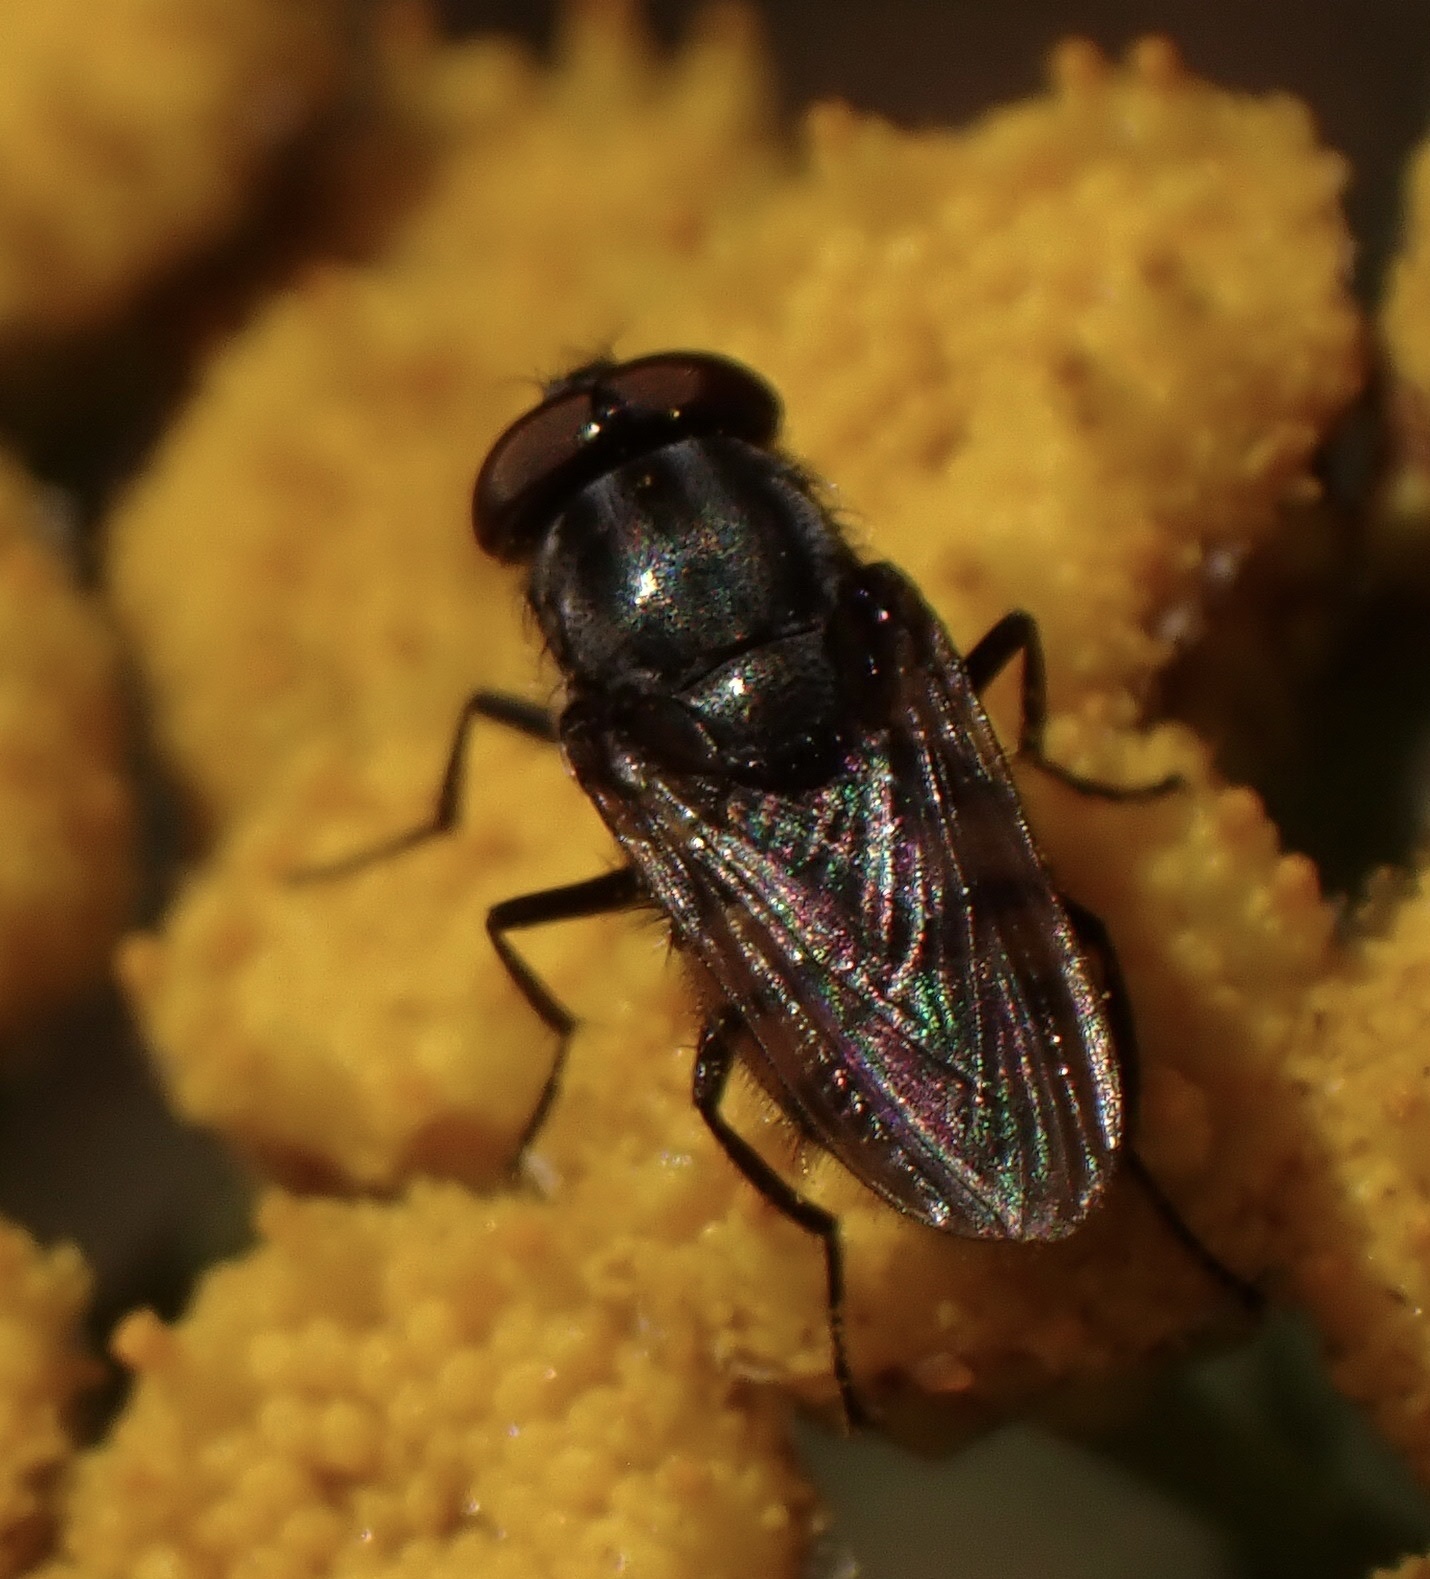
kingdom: Animalia
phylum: Arthropoda
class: Insecta
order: Diptera
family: Calliphoridae
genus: Stomorhina
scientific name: Stomorhina lunata
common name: Locust blowfly
